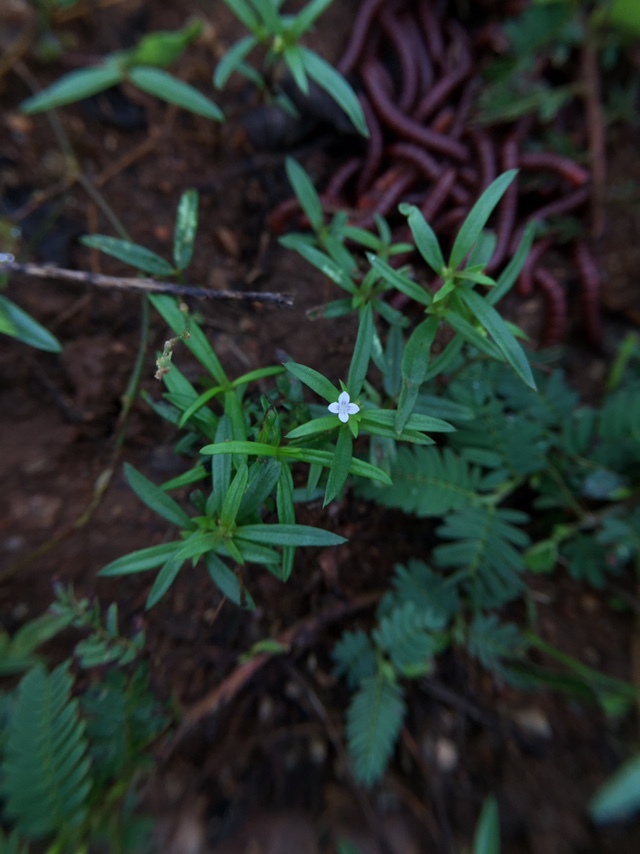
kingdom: Plantae
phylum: Tracheophyta
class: Magnoliopsida
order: Gentianales
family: Rubiaceae
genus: Oldenlandia
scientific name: Oldenlandia corymbosa
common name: Flat-top mille graines
